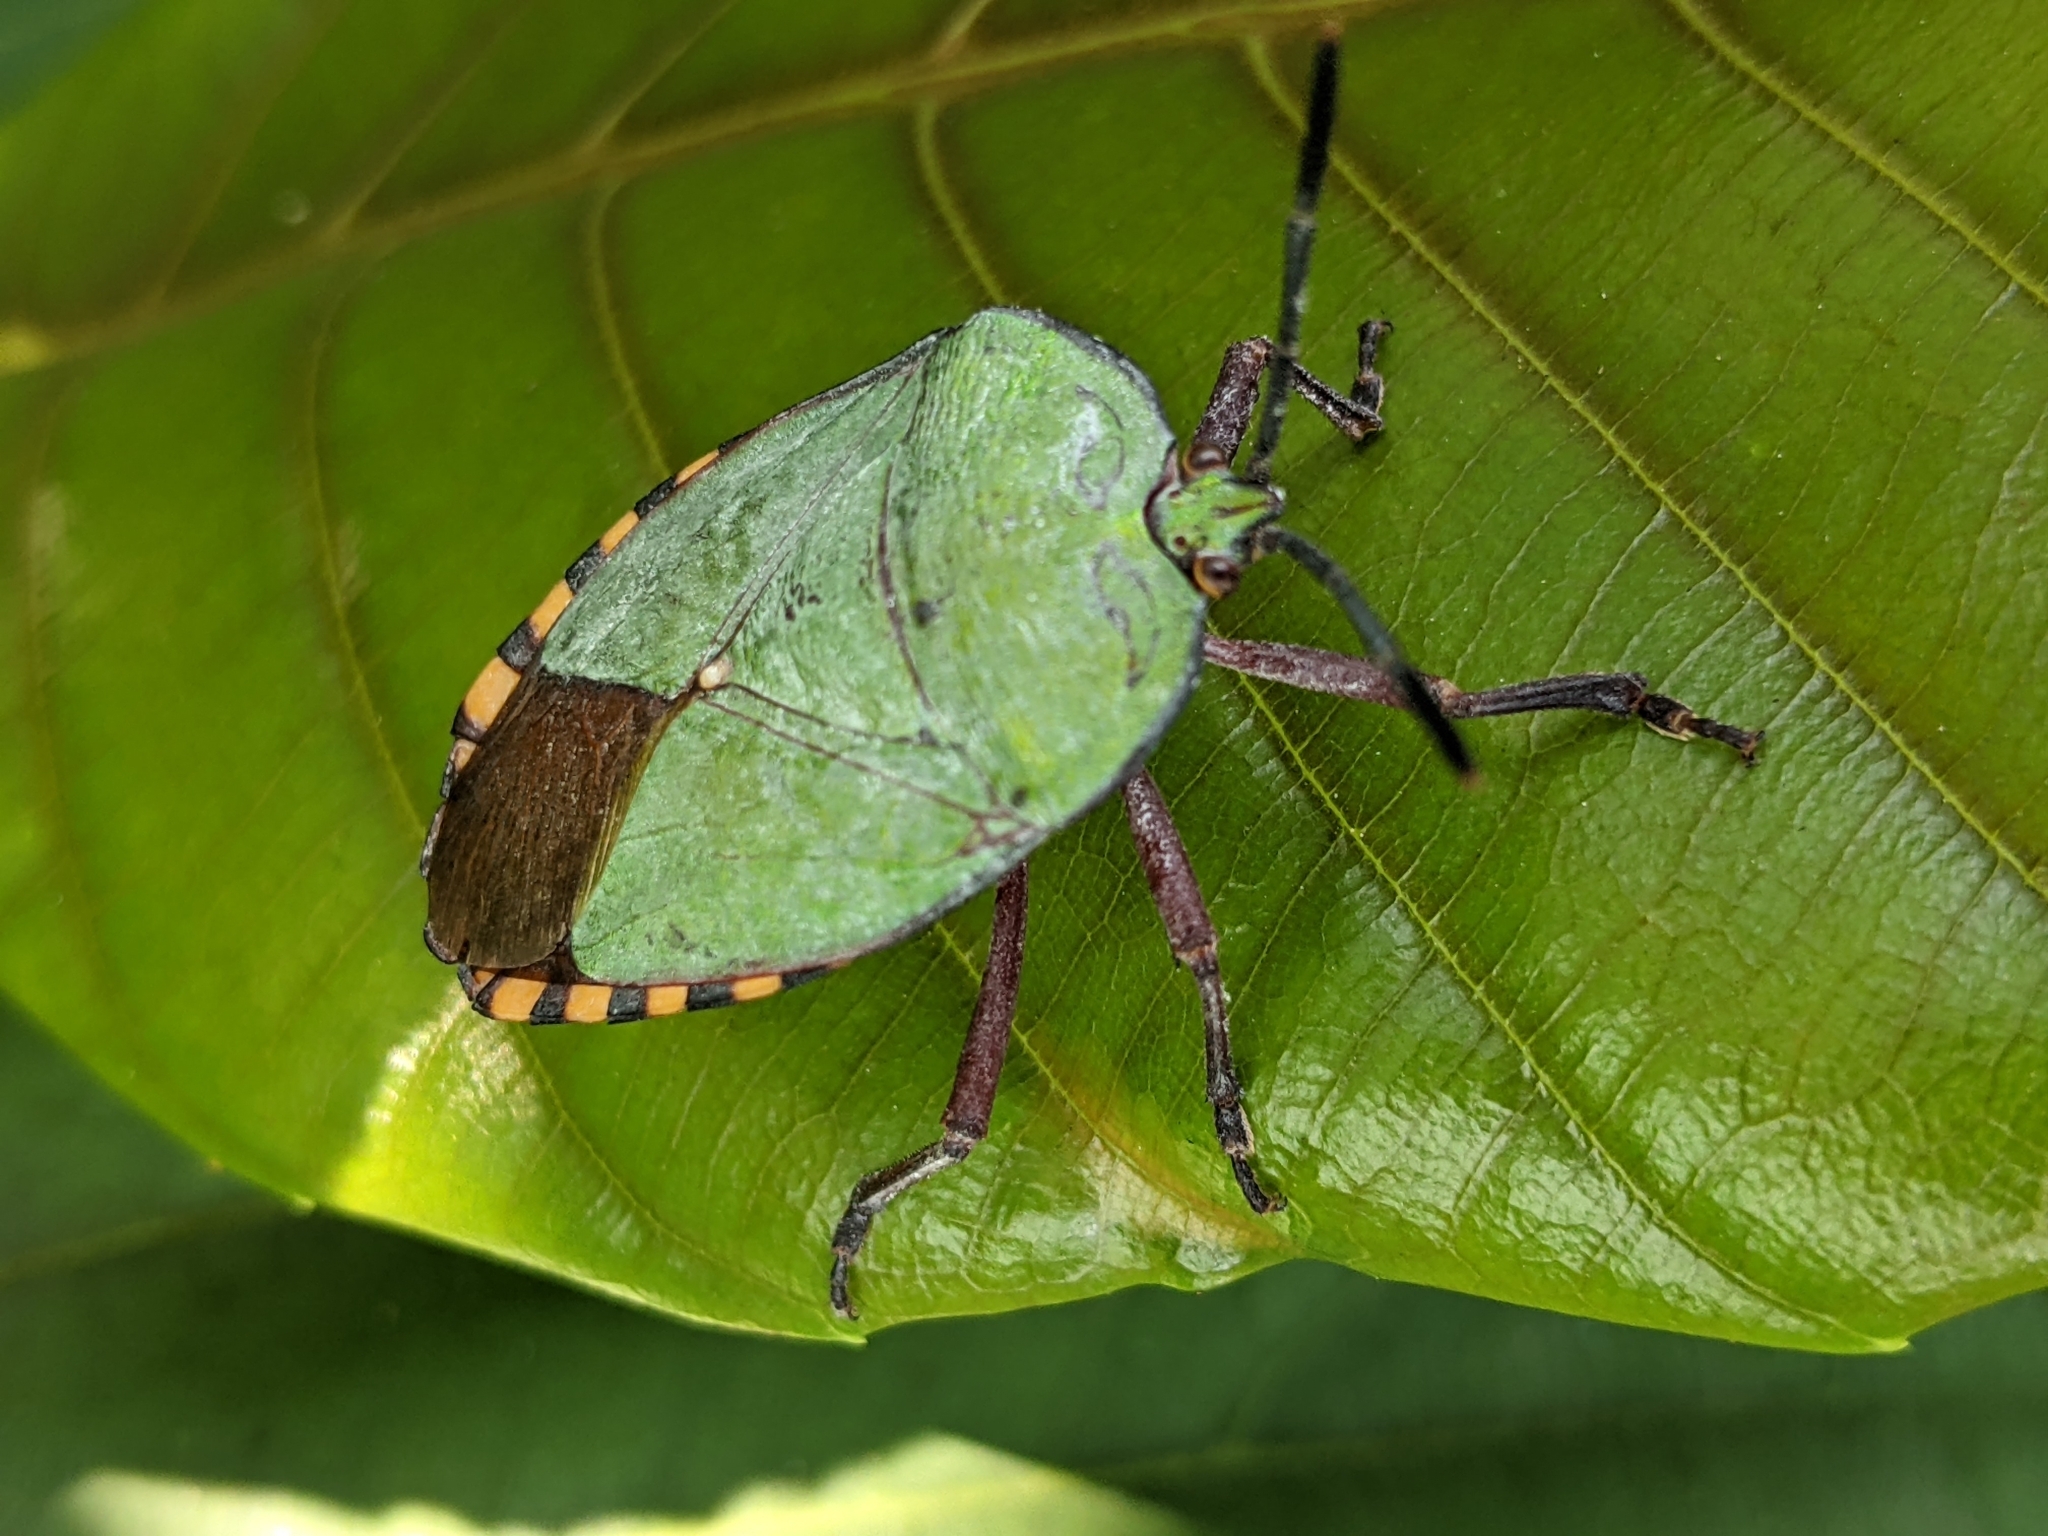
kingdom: Animalia
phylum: Arthropoda
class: Insecta
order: Hemiptera
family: Tessaratomidae
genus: Pycanum
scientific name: Pycanum alternatum
